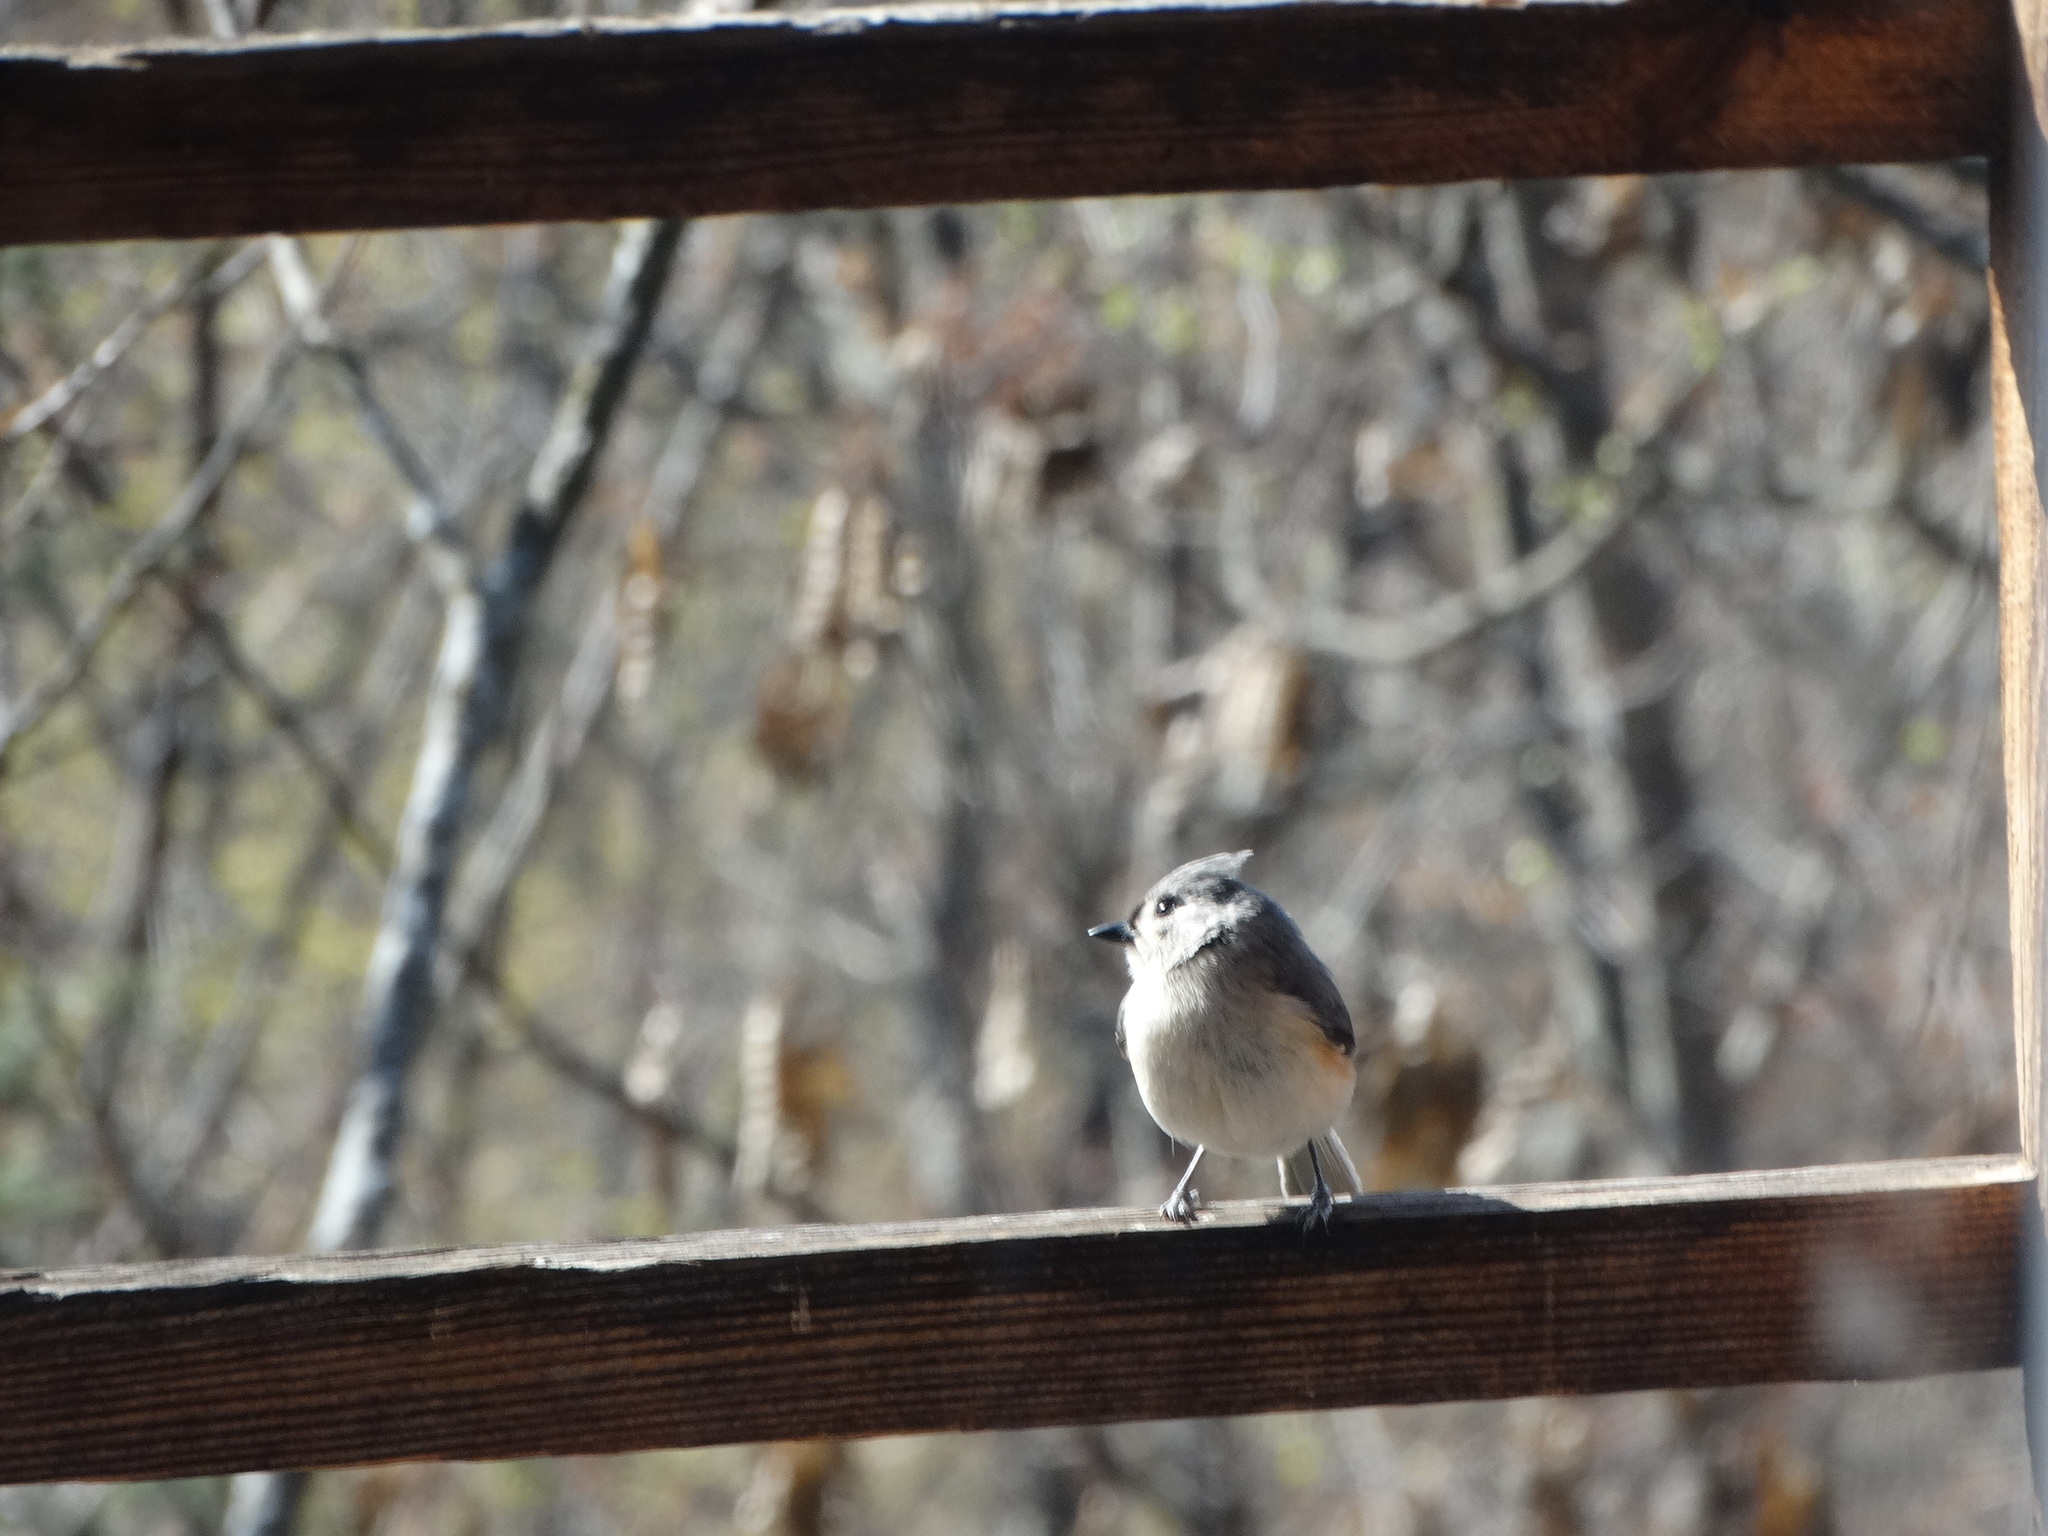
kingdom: Animalia
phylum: Chordata
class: Aves
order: Passeriformes
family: Paridae
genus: Baeolophus
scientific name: Baeolophus bicolor
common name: Tufted titmouse
